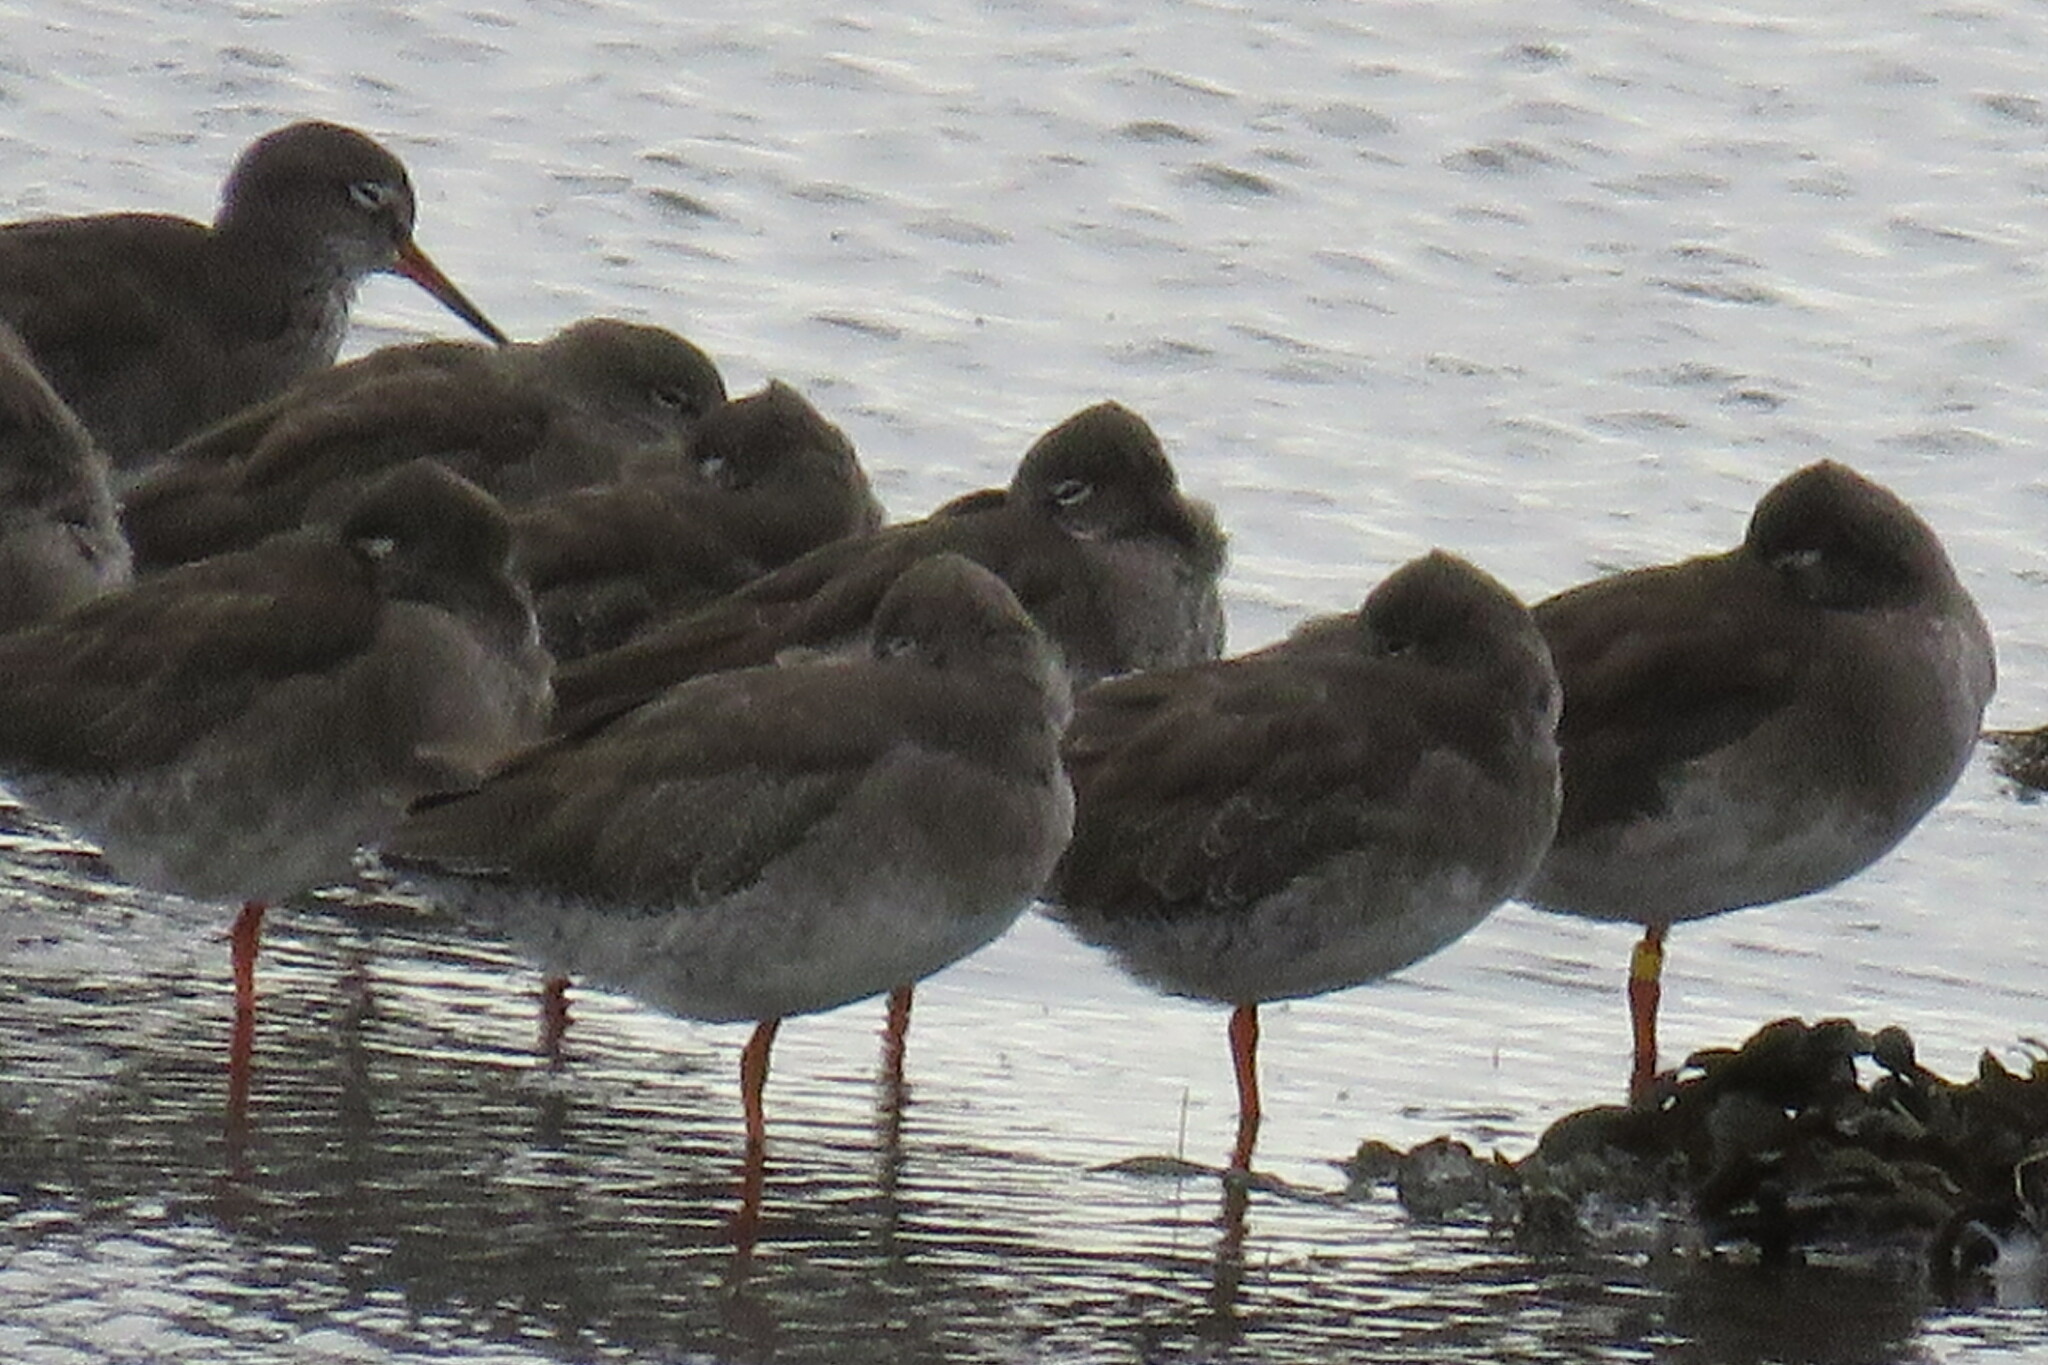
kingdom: Animalia
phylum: Chordata
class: Aves
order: Charadriiformes
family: Scolopacidae
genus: Tringa
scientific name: Tringa totanus
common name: Common redshank
